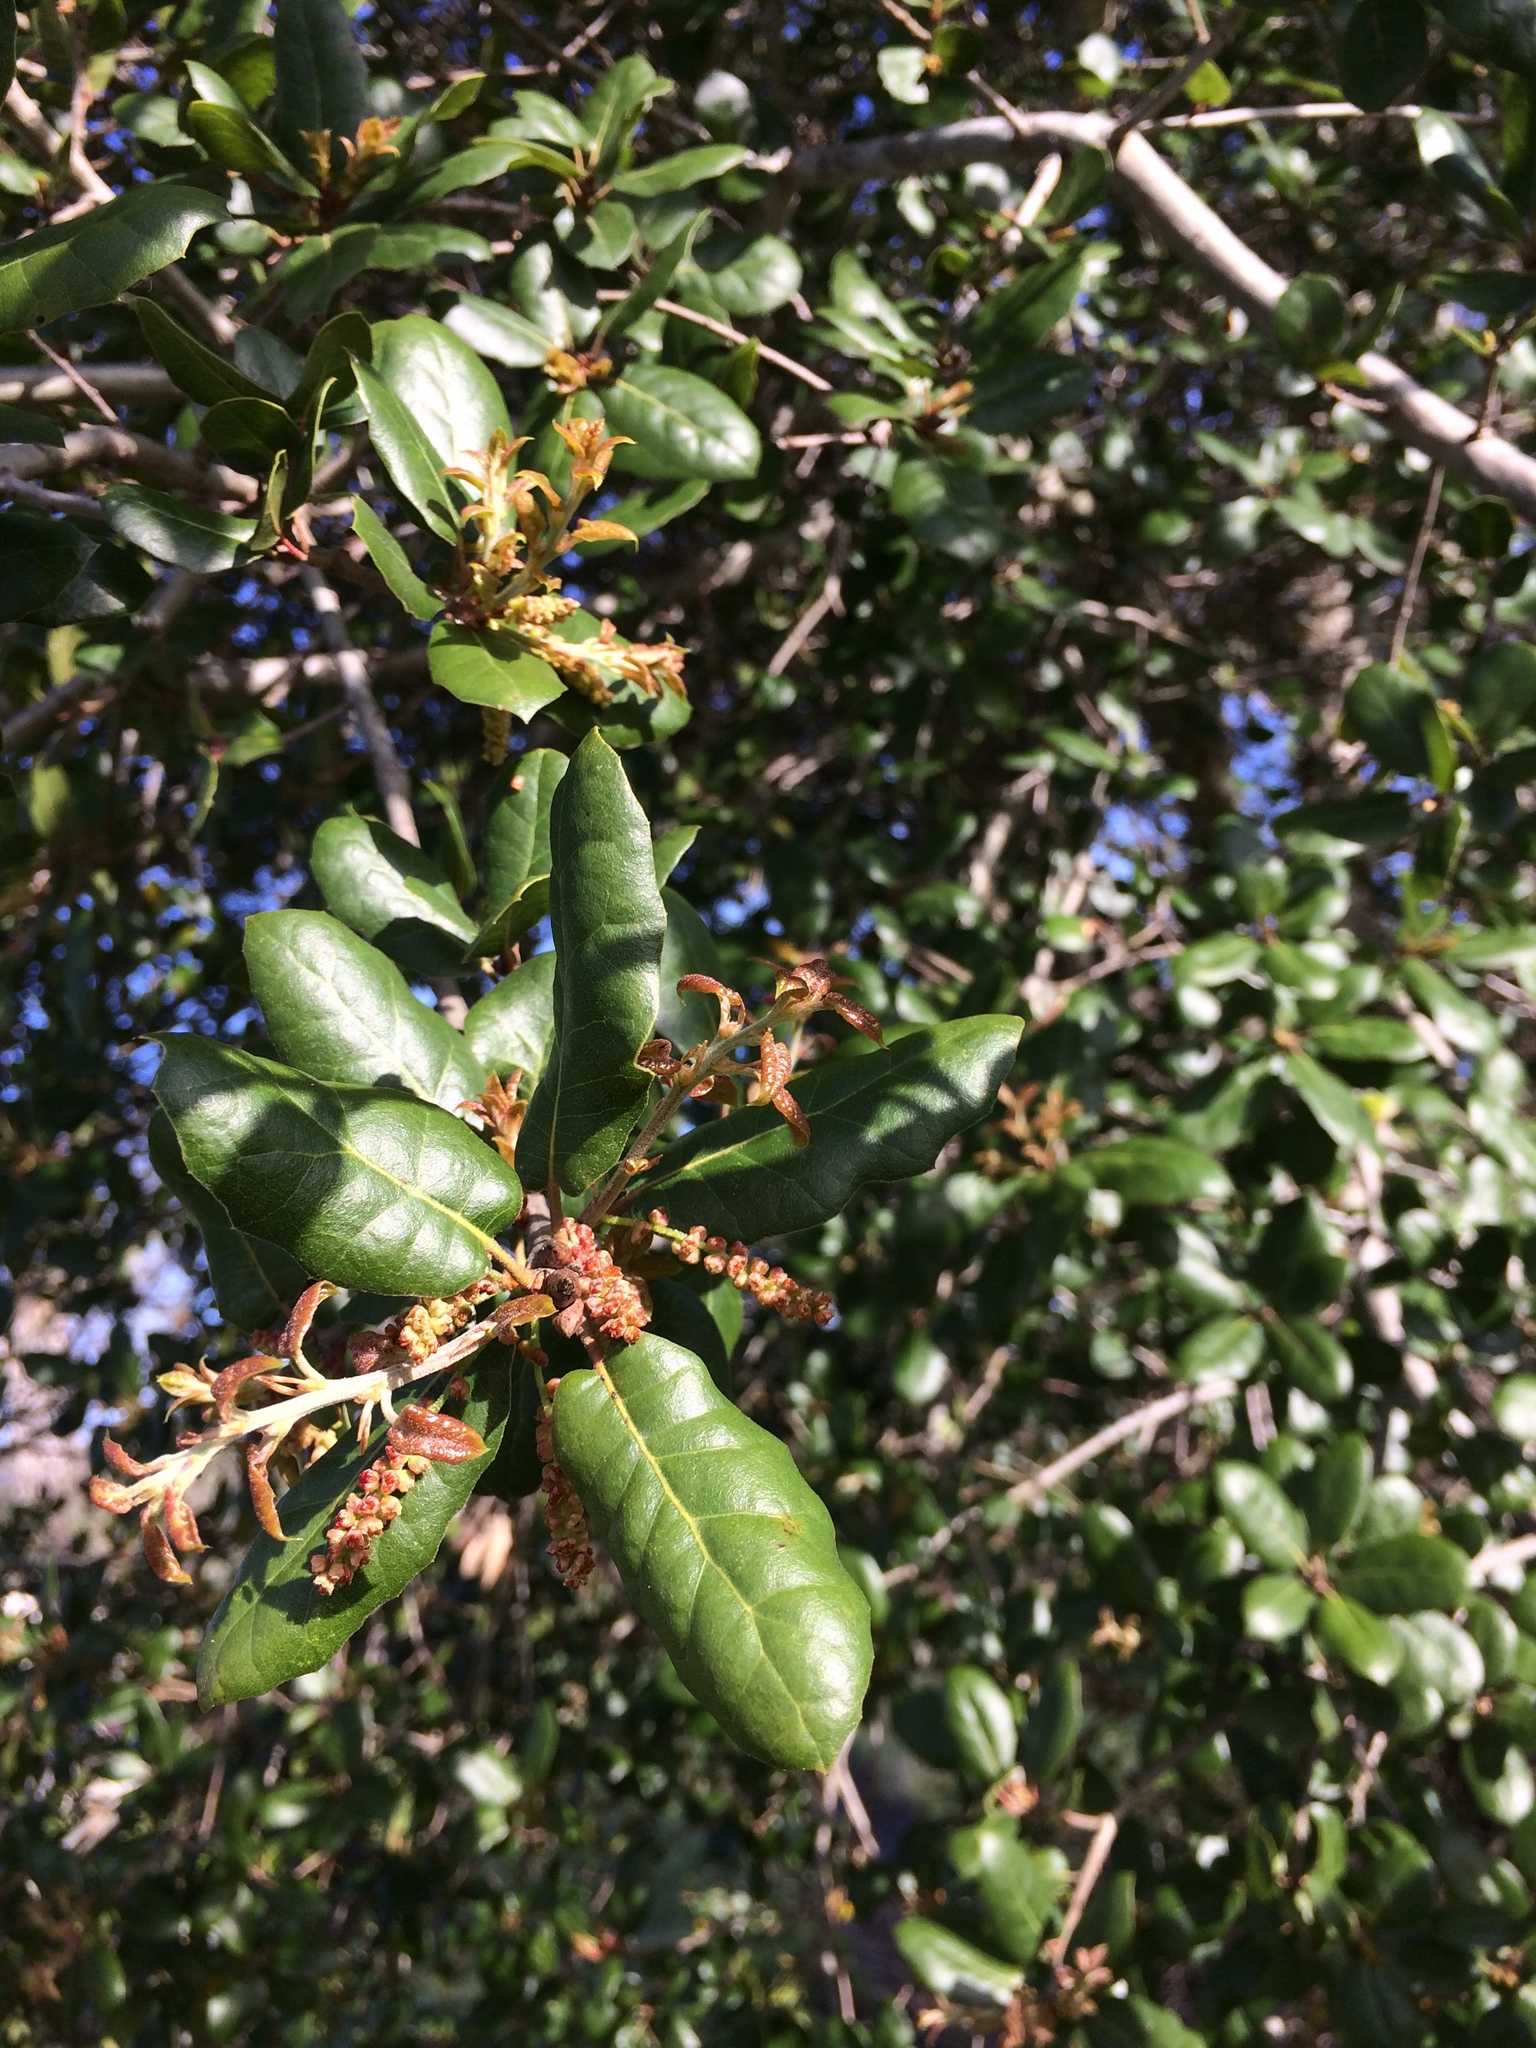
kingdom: Plantae
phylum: Tracheophyta
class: Magnoliopsida
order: Fagales
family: Fagaceae
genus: Quercus
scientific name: Quercus agrifolia
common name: California live oak
